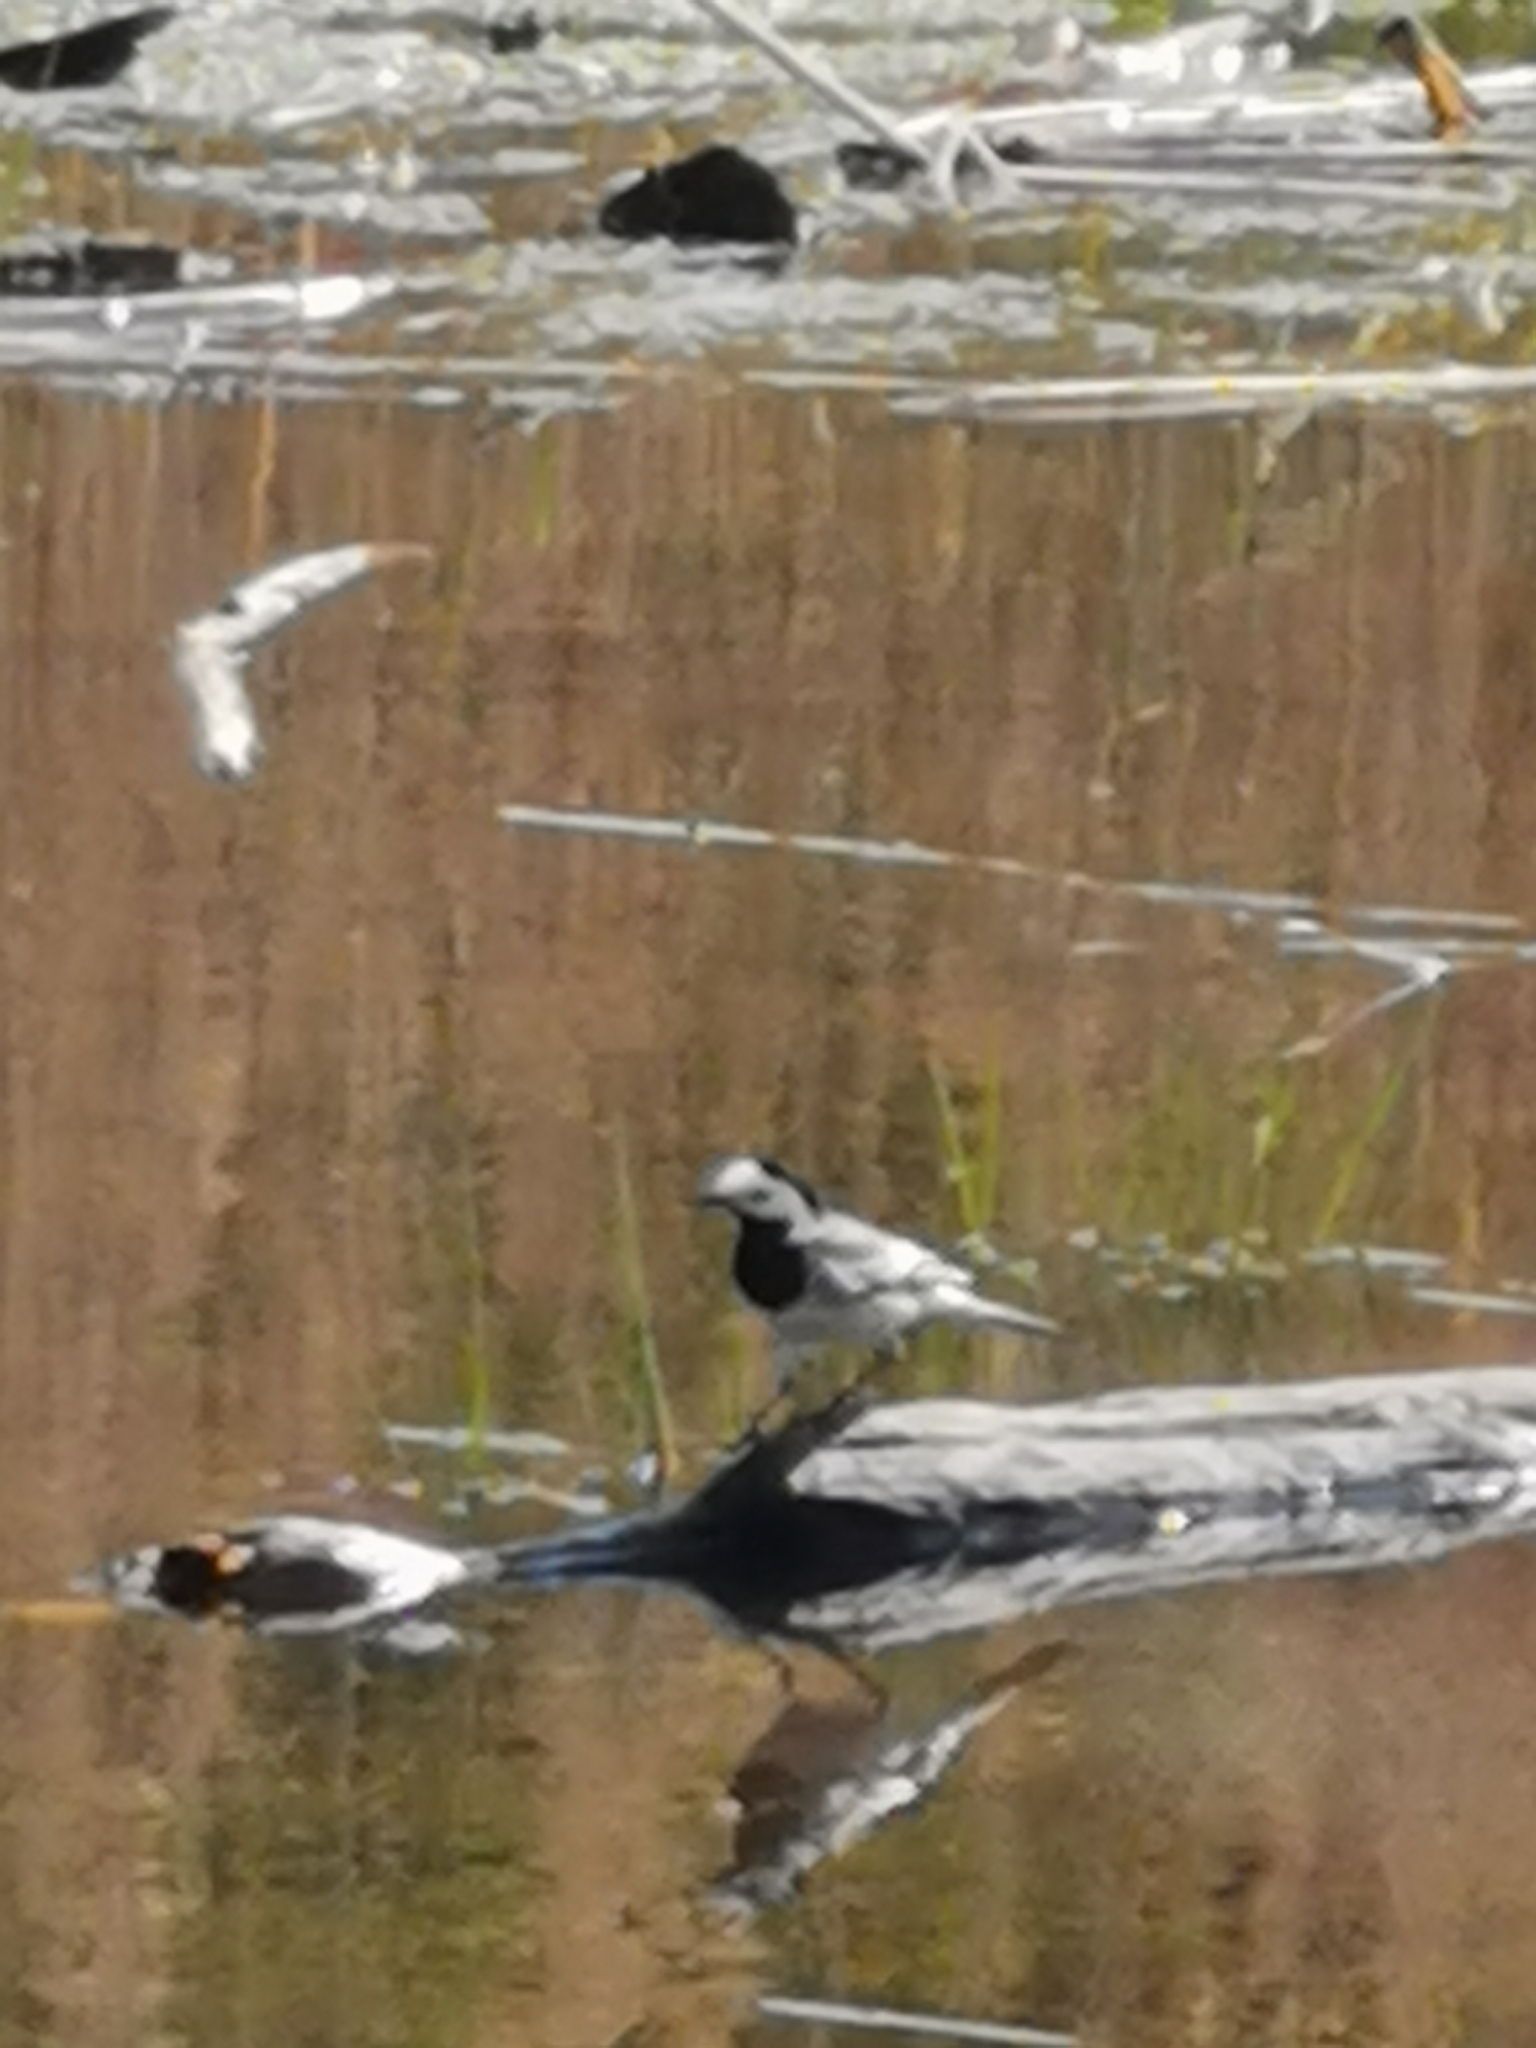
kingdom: Animalia
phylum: Chordata
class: Aves
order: Passeriformes
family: Motacillidae
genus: Motacilla
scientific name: Motacilla alba
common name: White wagtail
